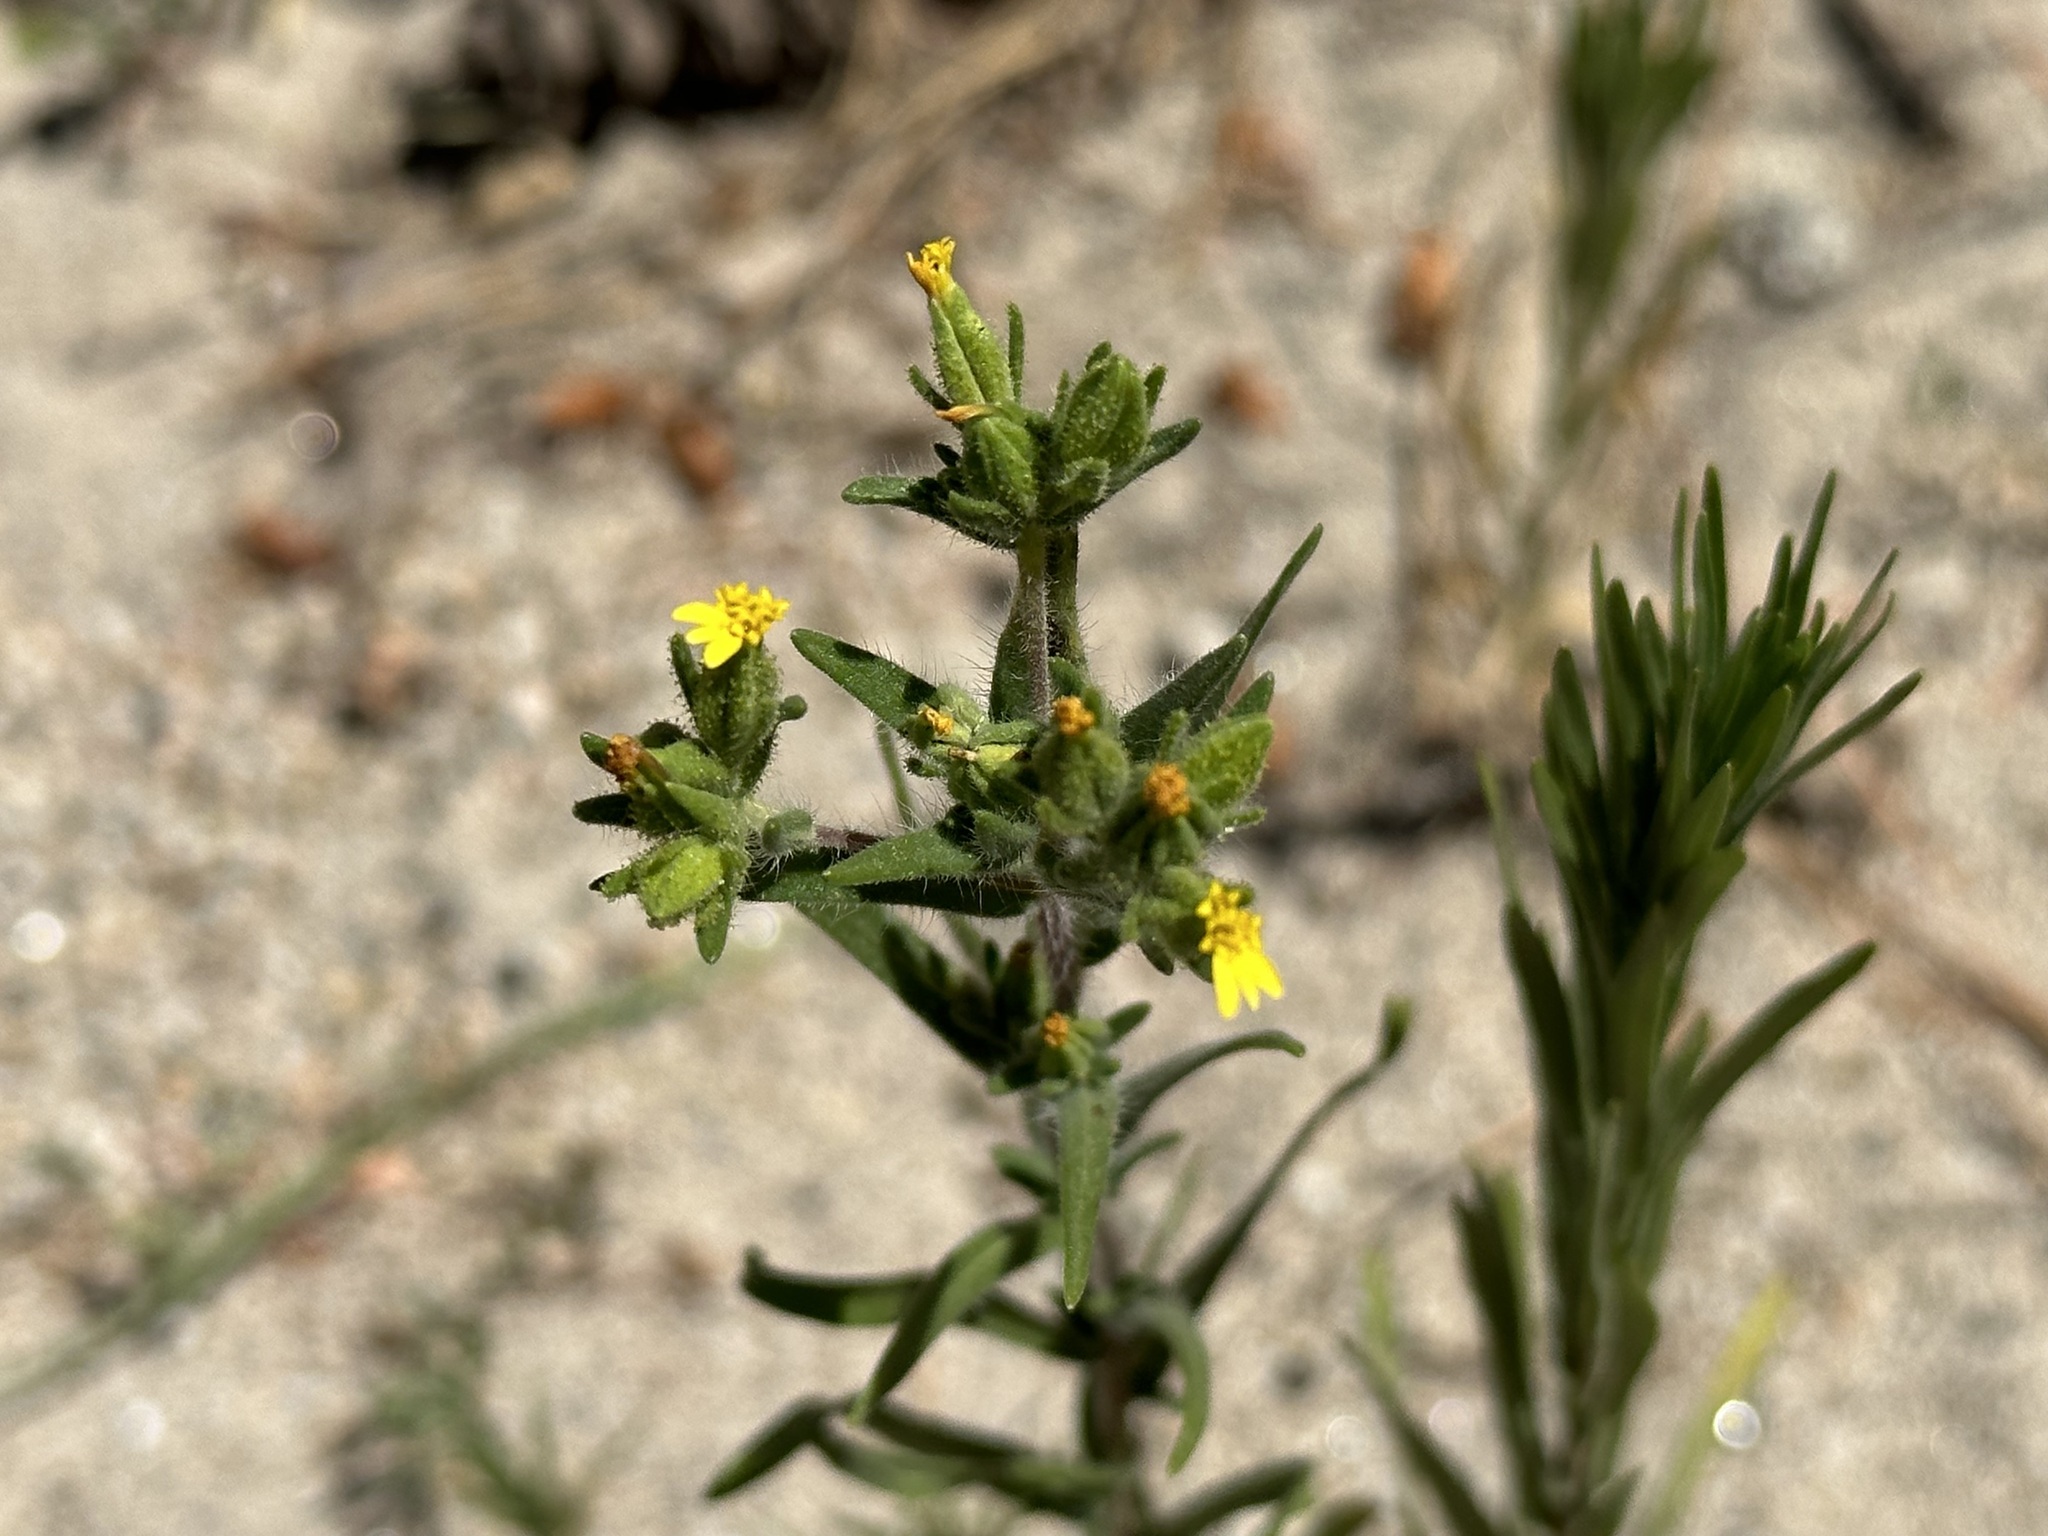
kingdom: Plantae
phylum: Tracheophyta
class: Magnoliopsida
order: Asterales
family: Asteraceae
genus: Madia
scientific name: Madia glomerata
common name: Mountain tarweed
